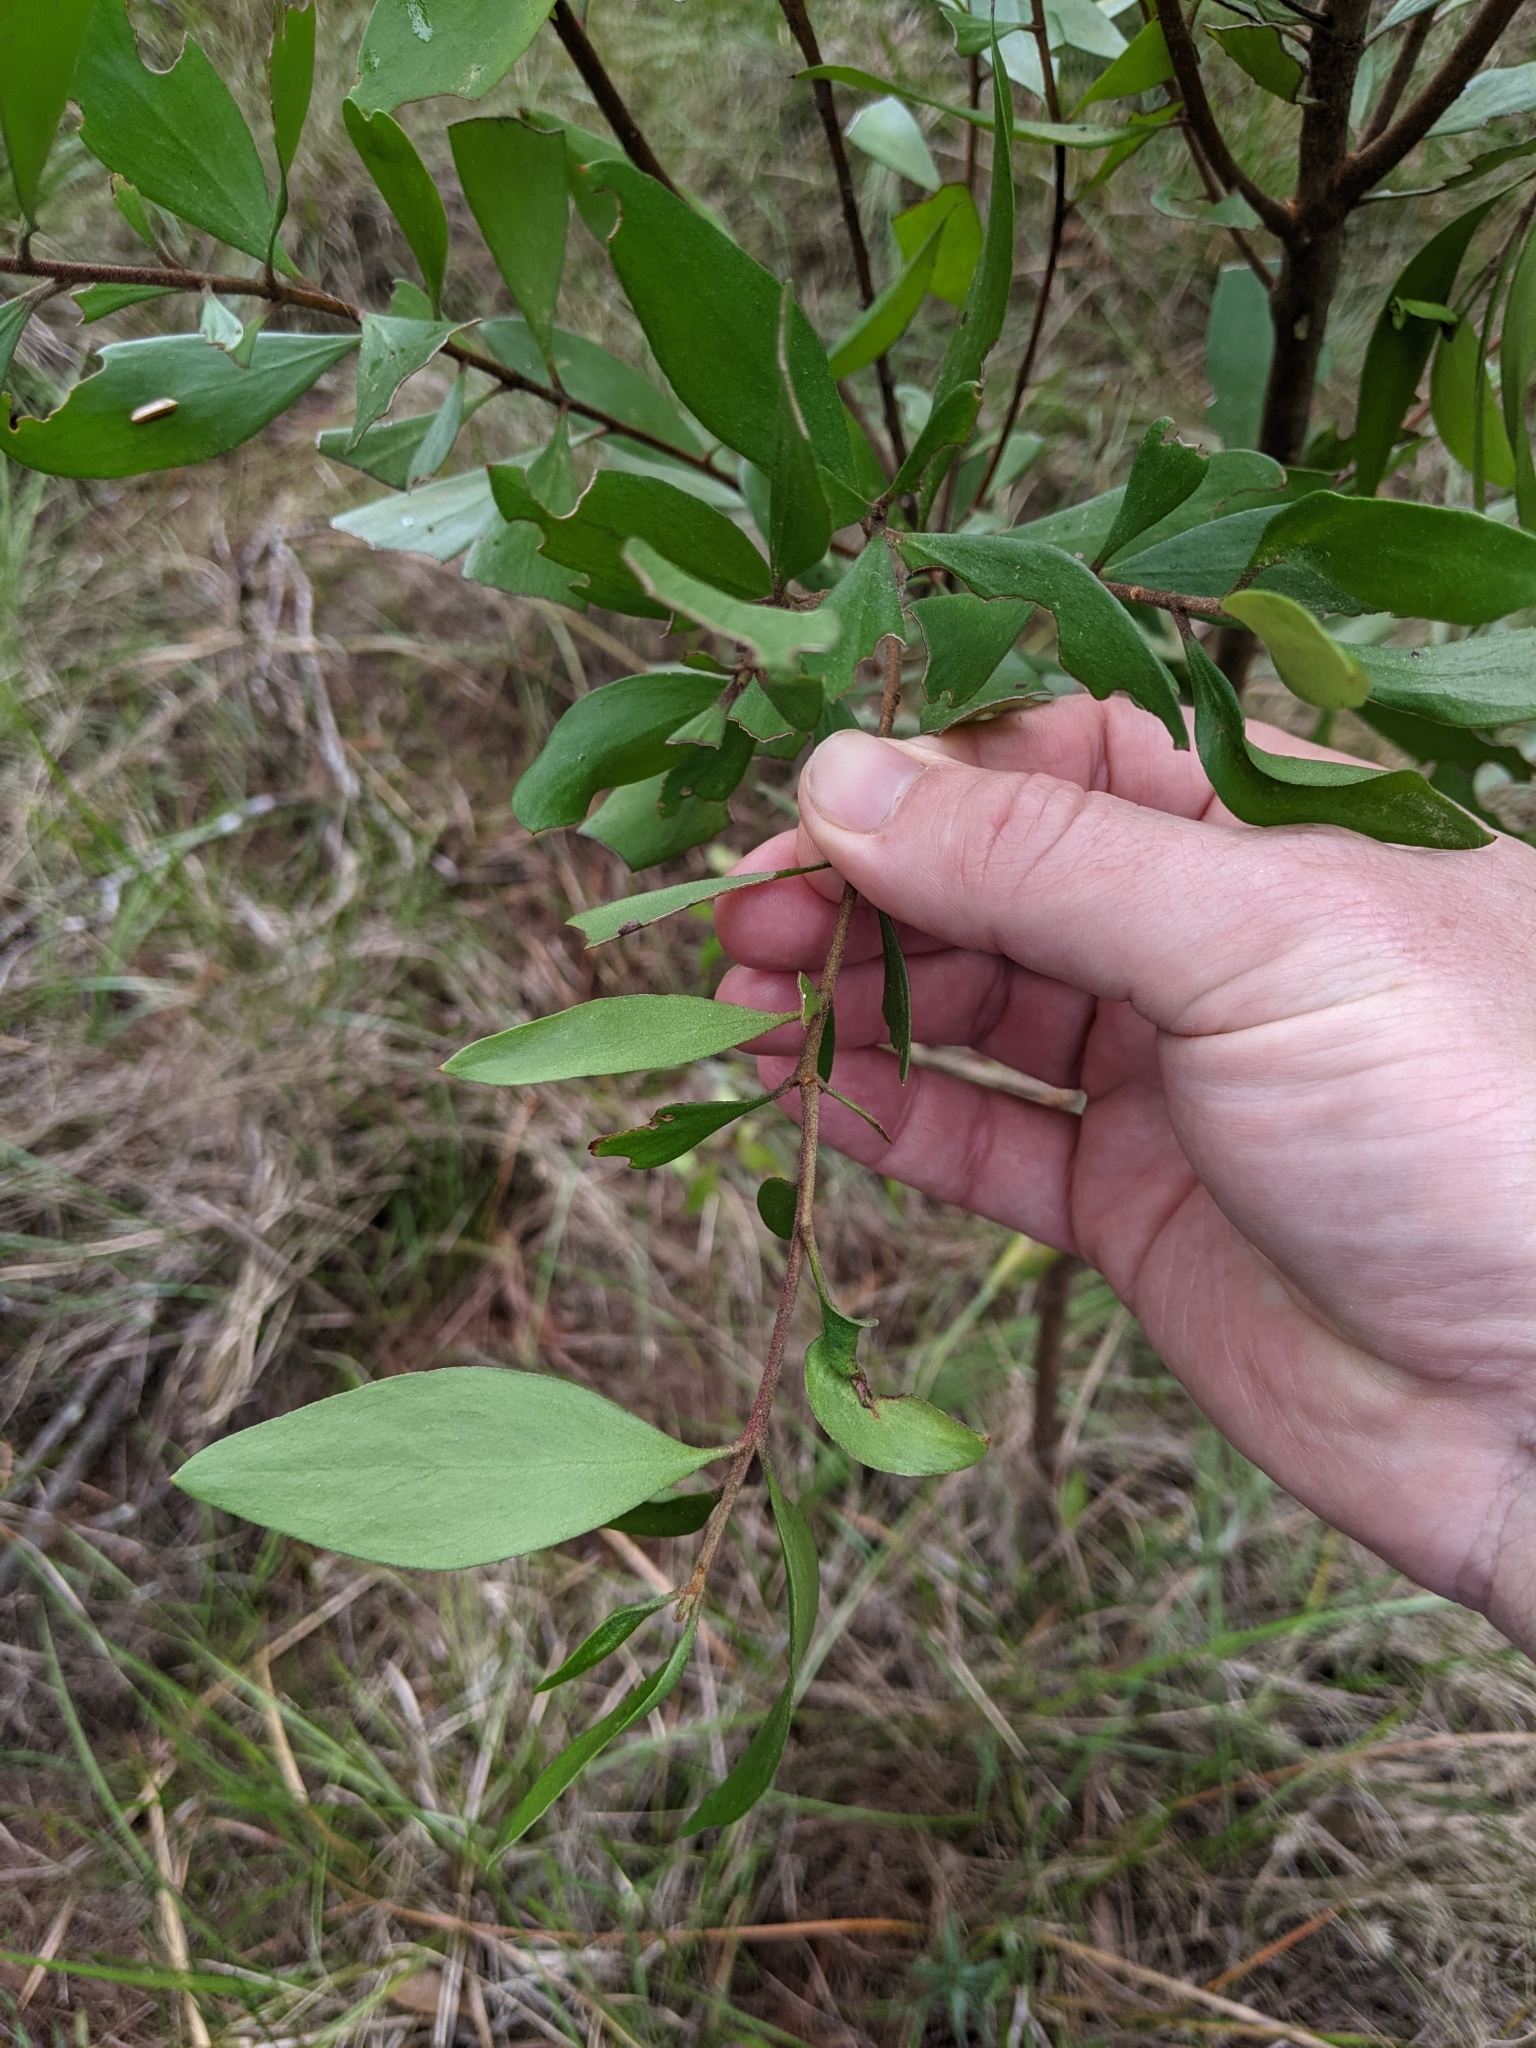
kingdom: Plantae
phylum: Tracheophyta
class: Magnoliopsida
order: Proteales
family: Proteaceae
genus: Persoonia
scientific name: Persoonia stradbrokensis
